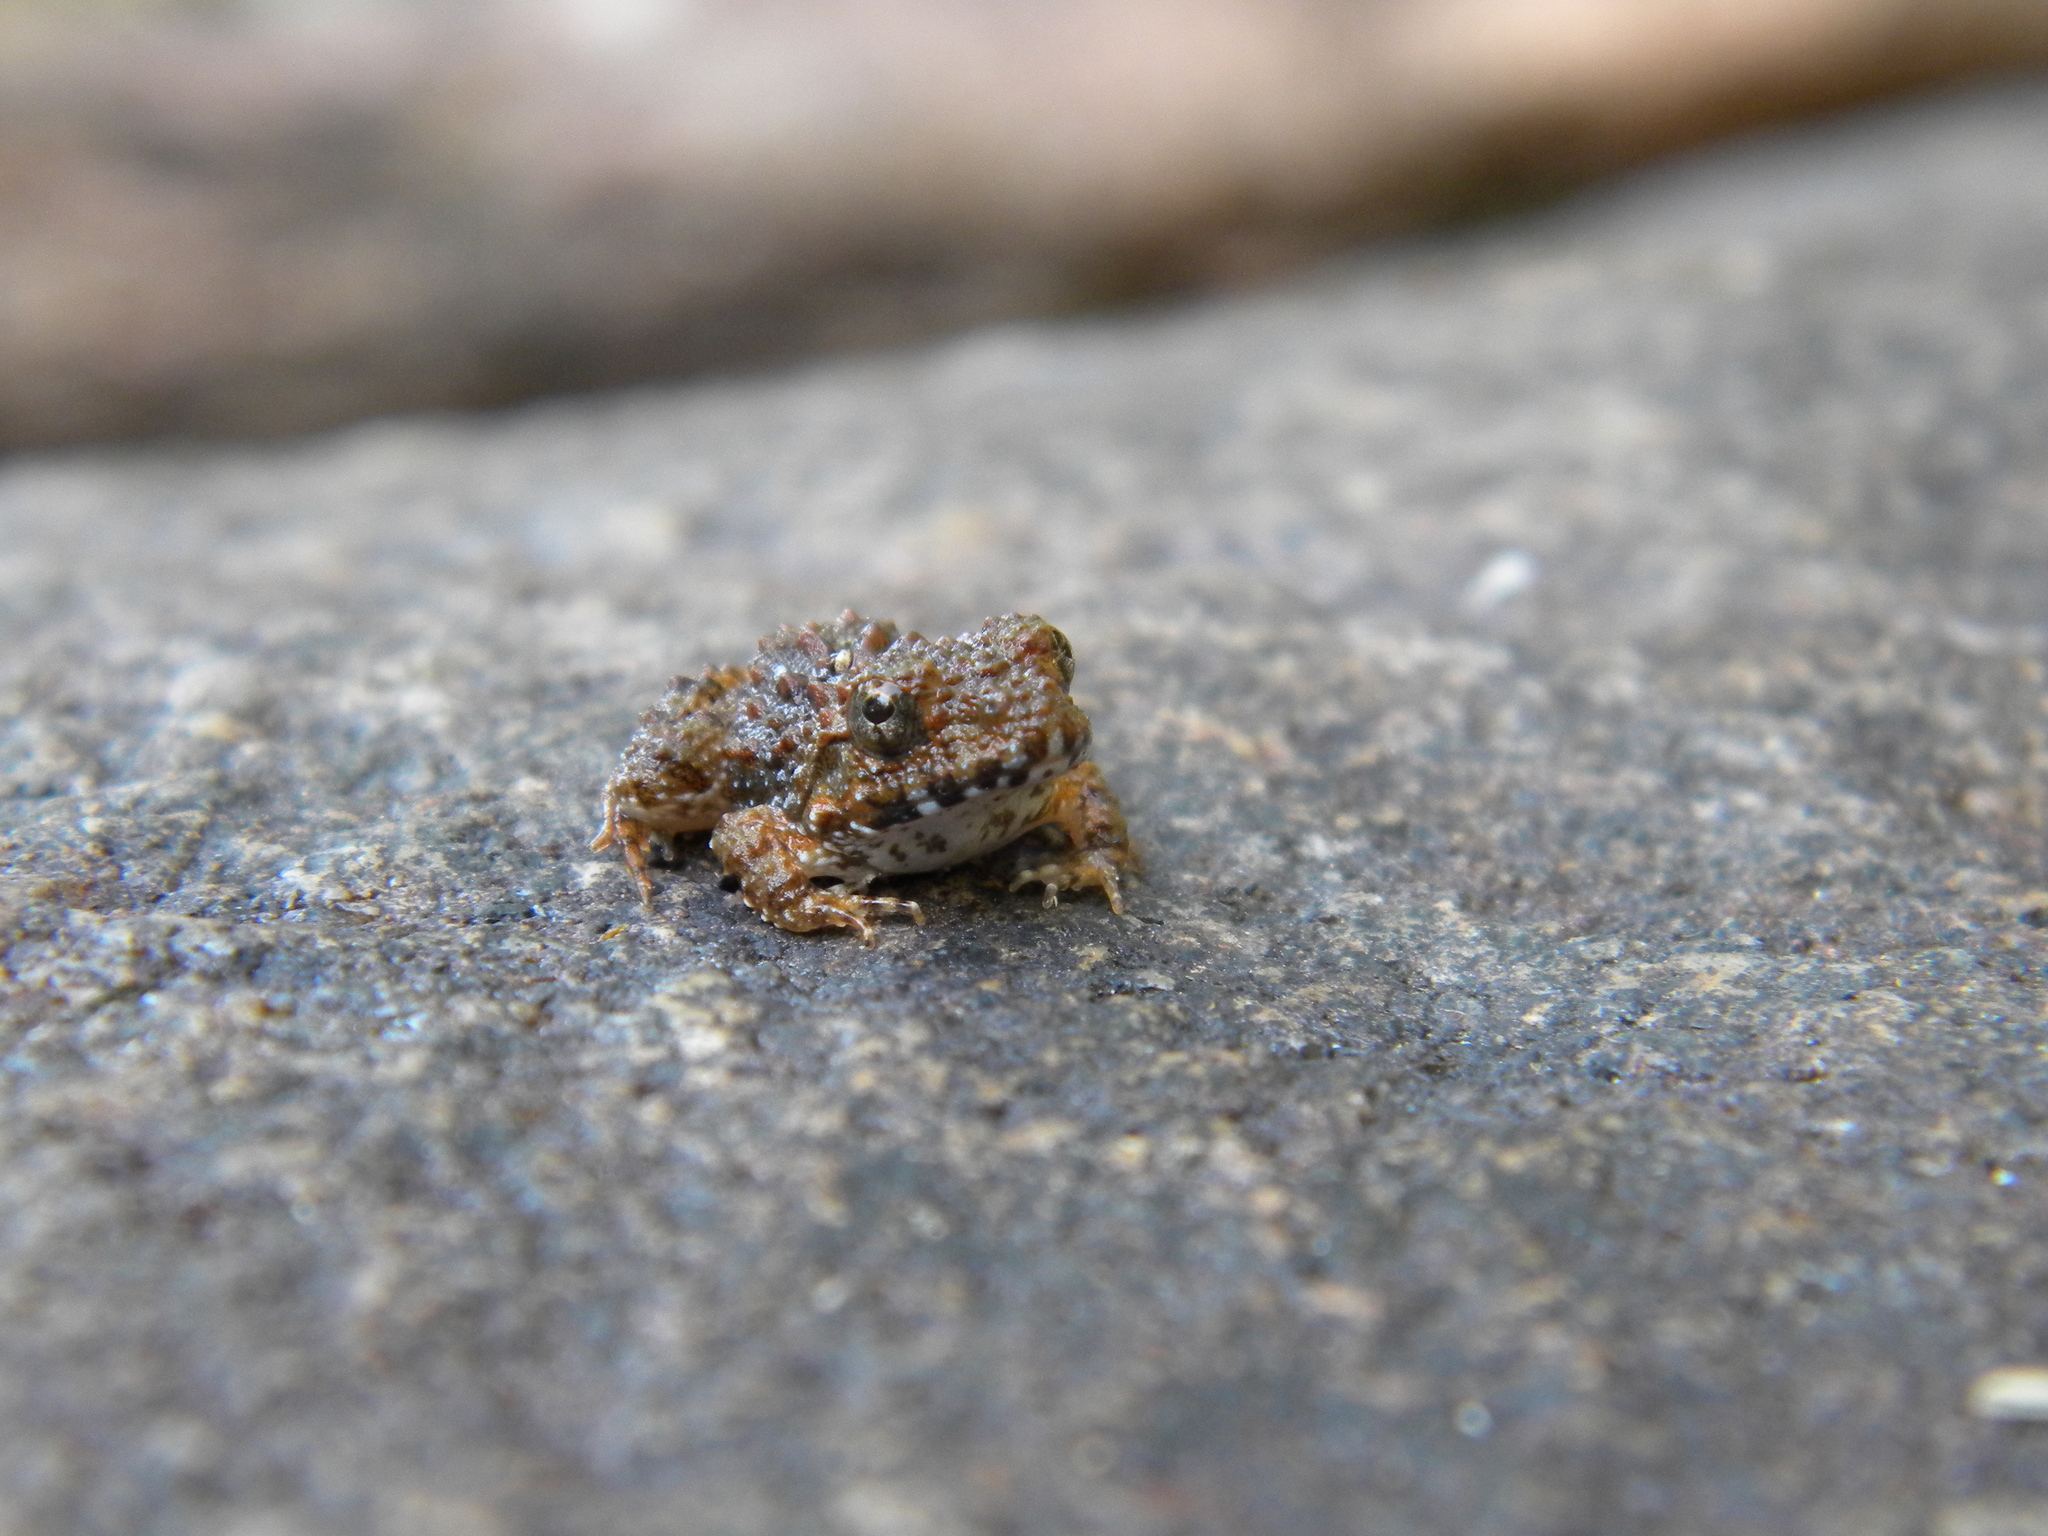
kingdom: Animalia
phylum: Chordata
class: Amphibia
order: Anura
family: Dicroglossidae
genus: Minervarya
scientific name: Minervarya keralensis
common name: Dubois' hill frog
